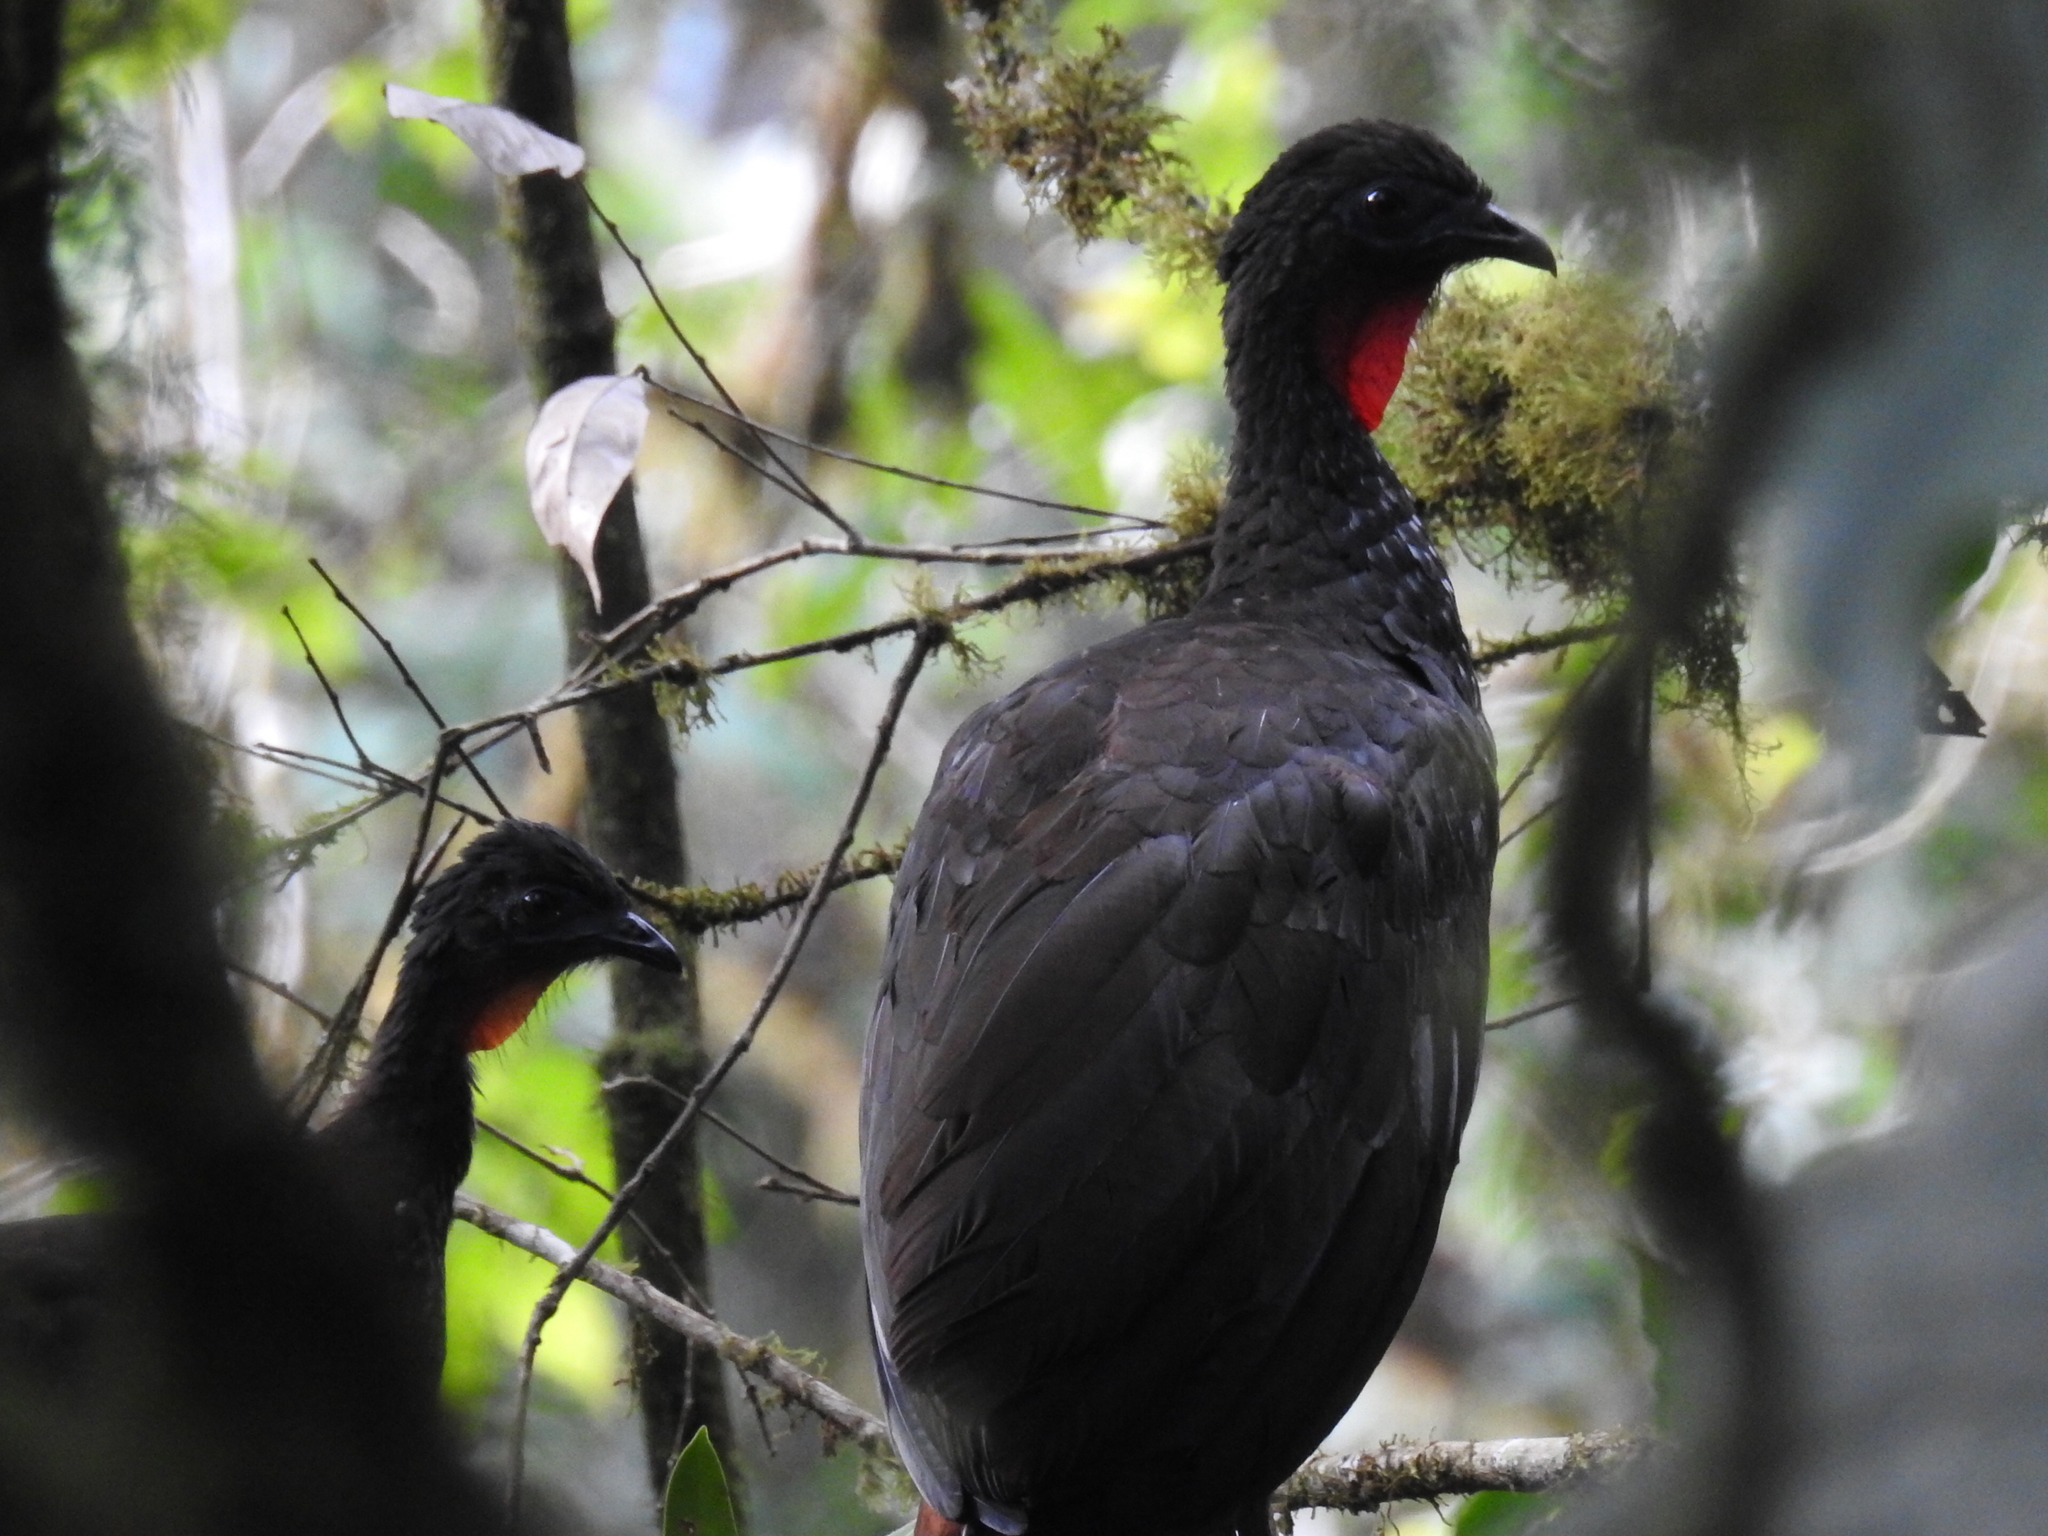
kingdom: Animalia
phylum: Chordata
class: Aves
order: Galliformes
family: Cracidae
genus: Penelope
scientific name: Penelope purpurascens
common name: Crested guan
